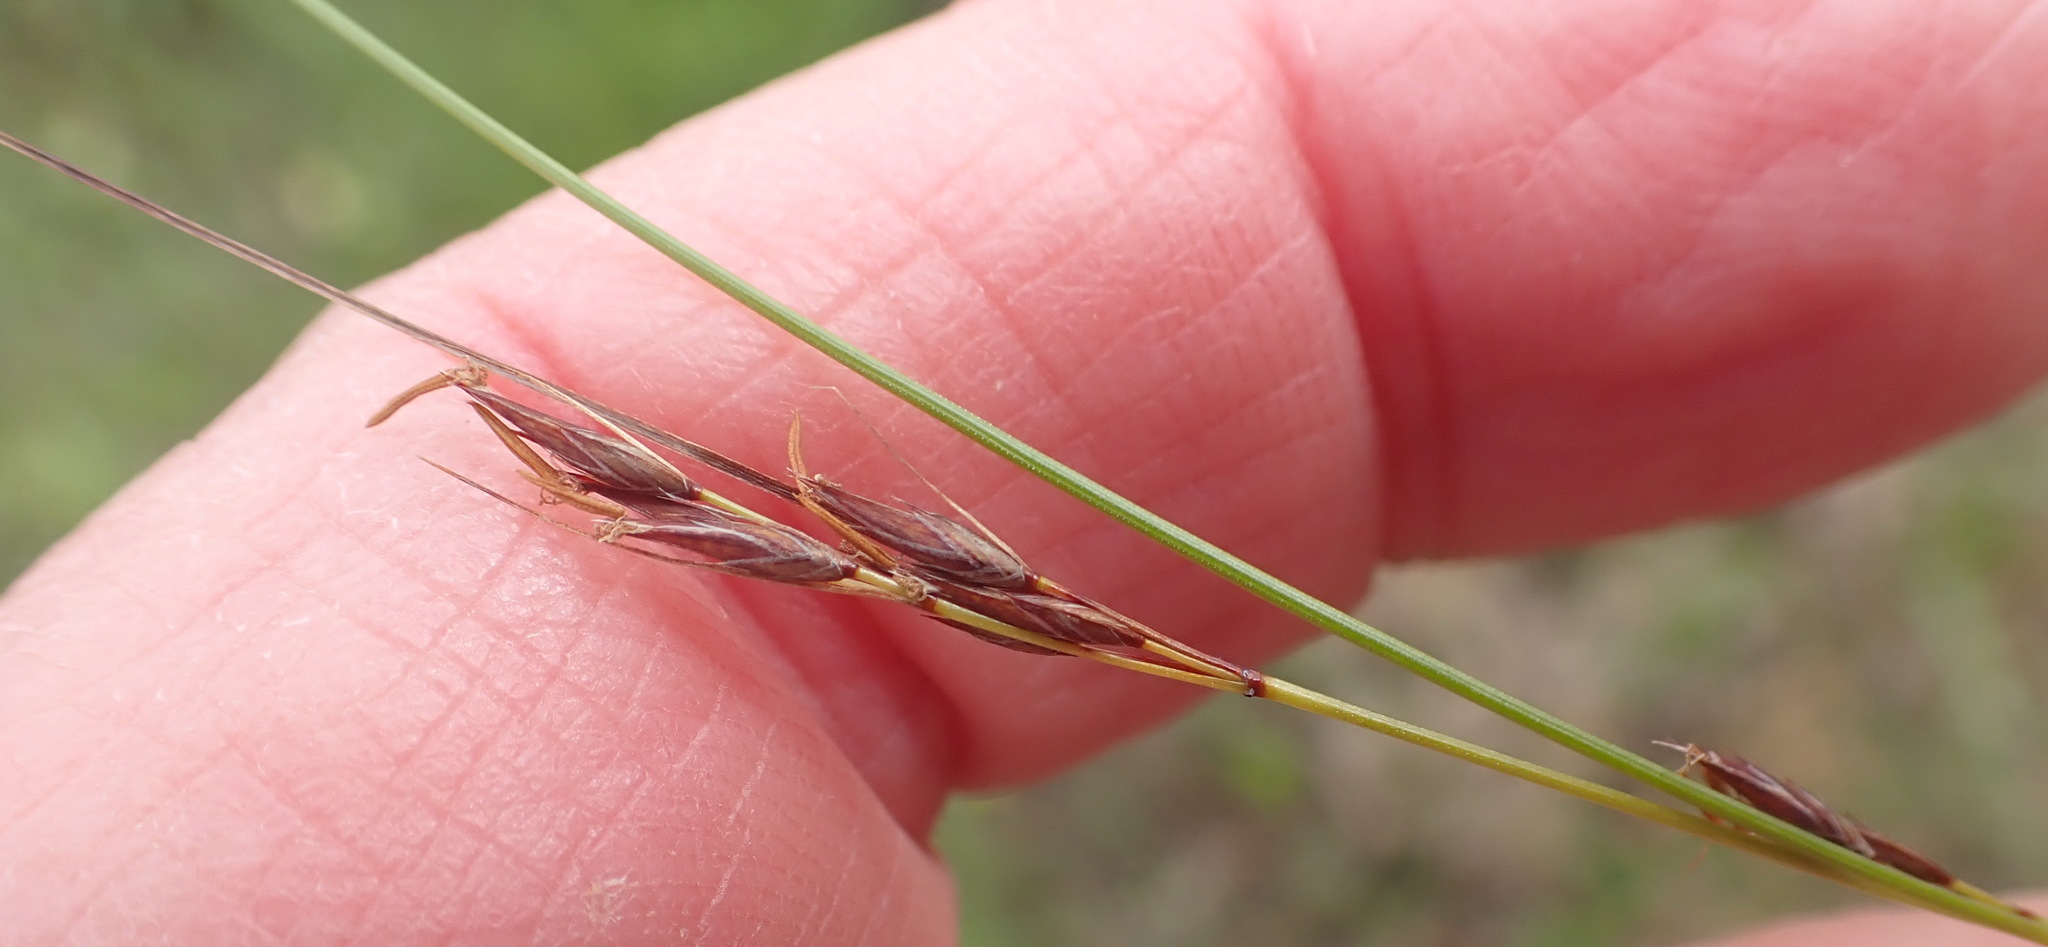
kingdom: Plantae
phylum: Tracheophyta
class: Liliopsida
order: Poales
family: Cyperaceae
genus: Schoenus
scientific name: Schoenus graciliculmis
